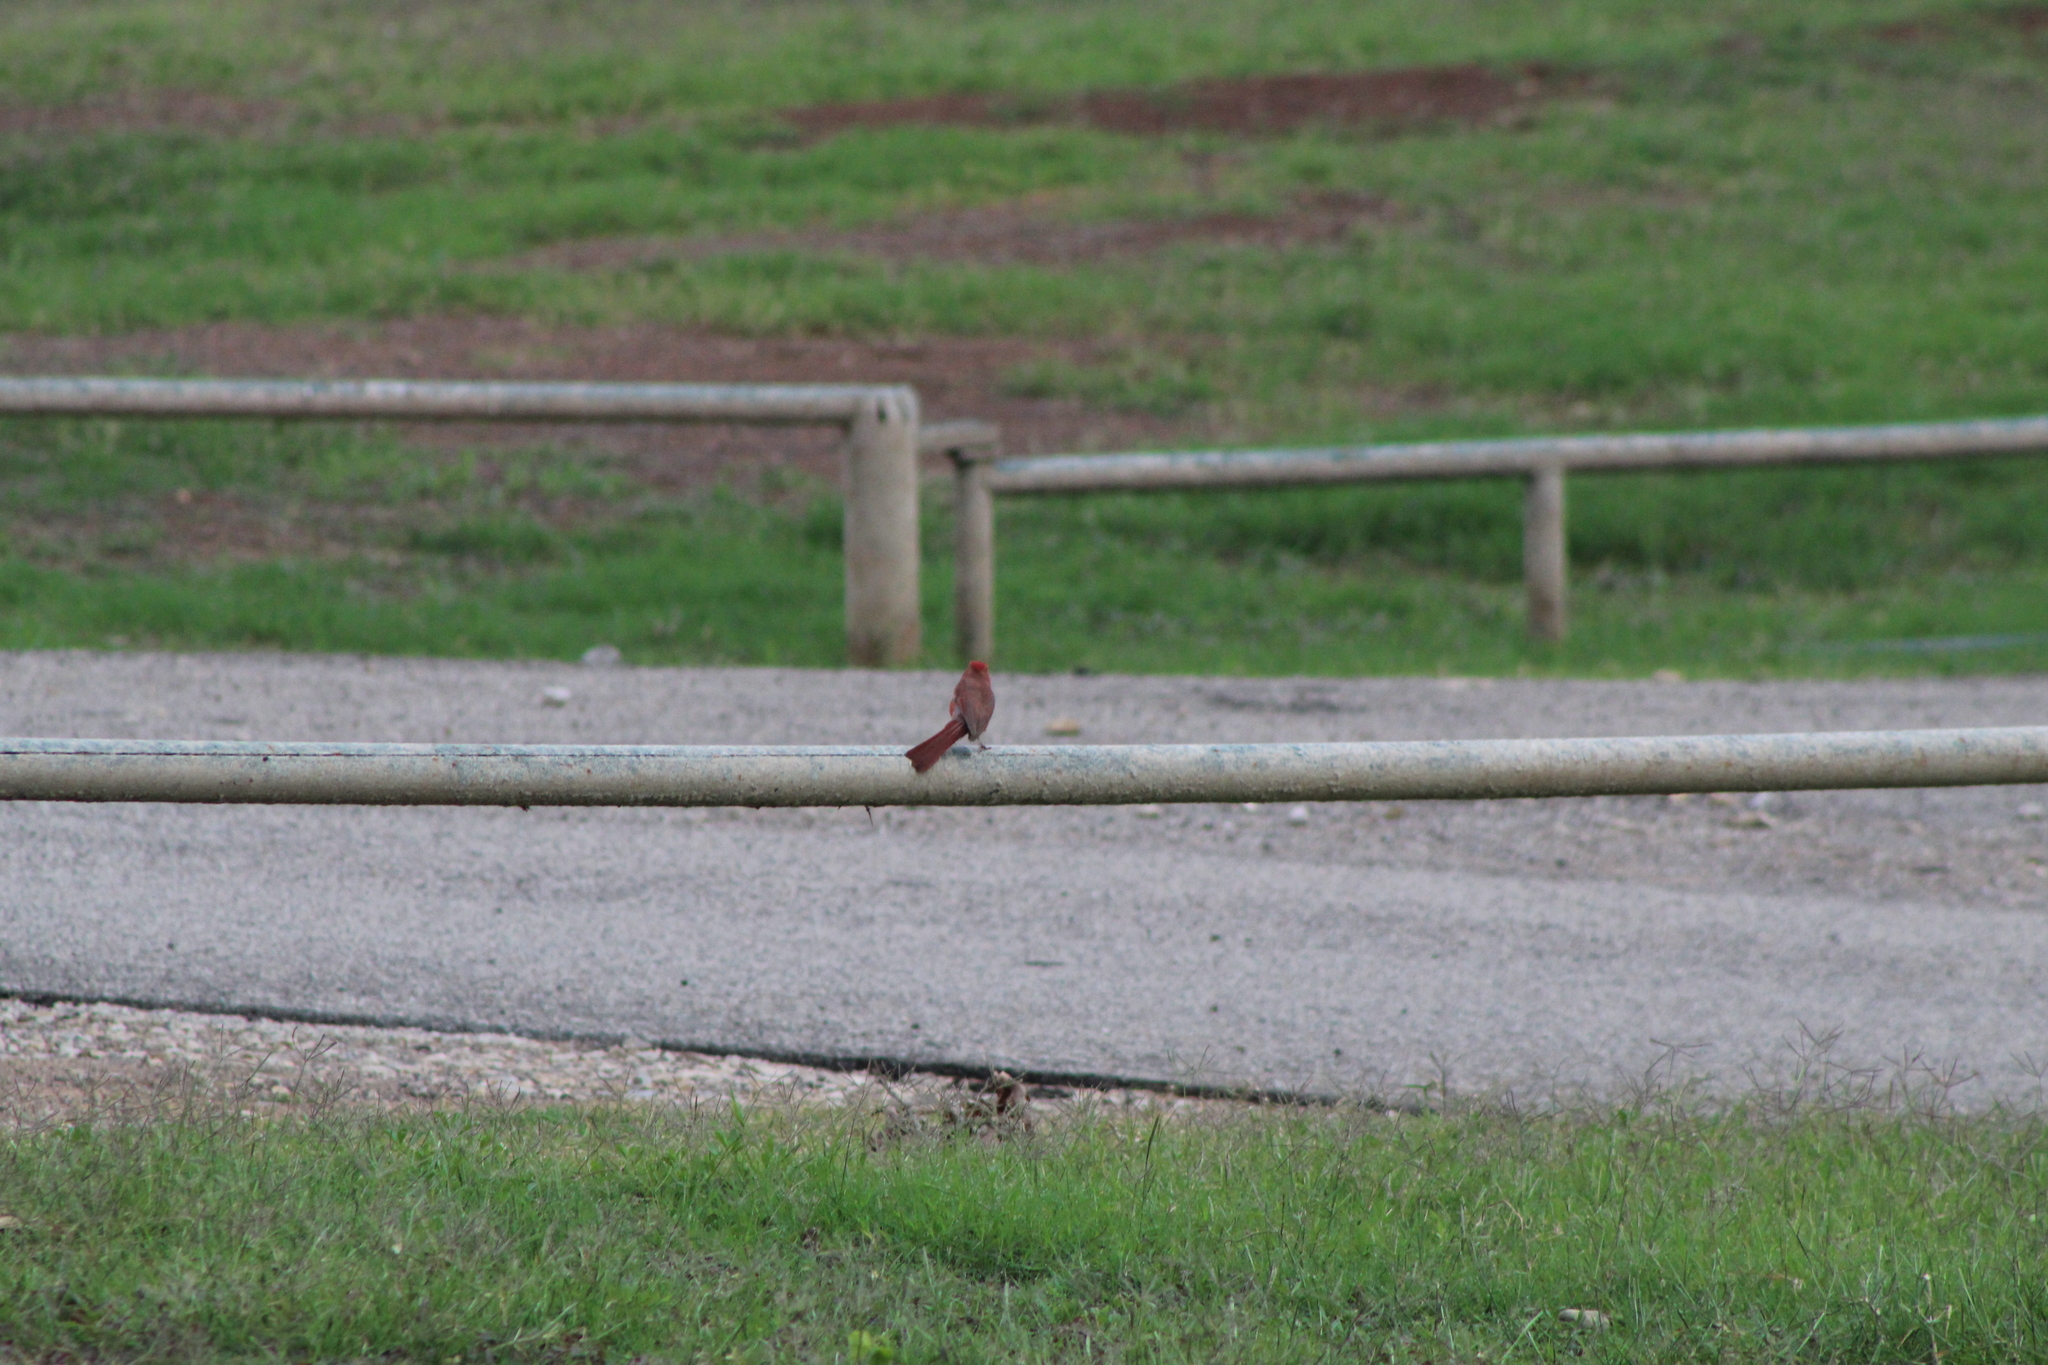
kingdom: Animalia
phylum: Chordata
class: Aves
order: Passeriformes
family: Cardinalidae
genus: Cardinalis
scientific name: Cardinalis cardinalis
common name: Northern cardinal
